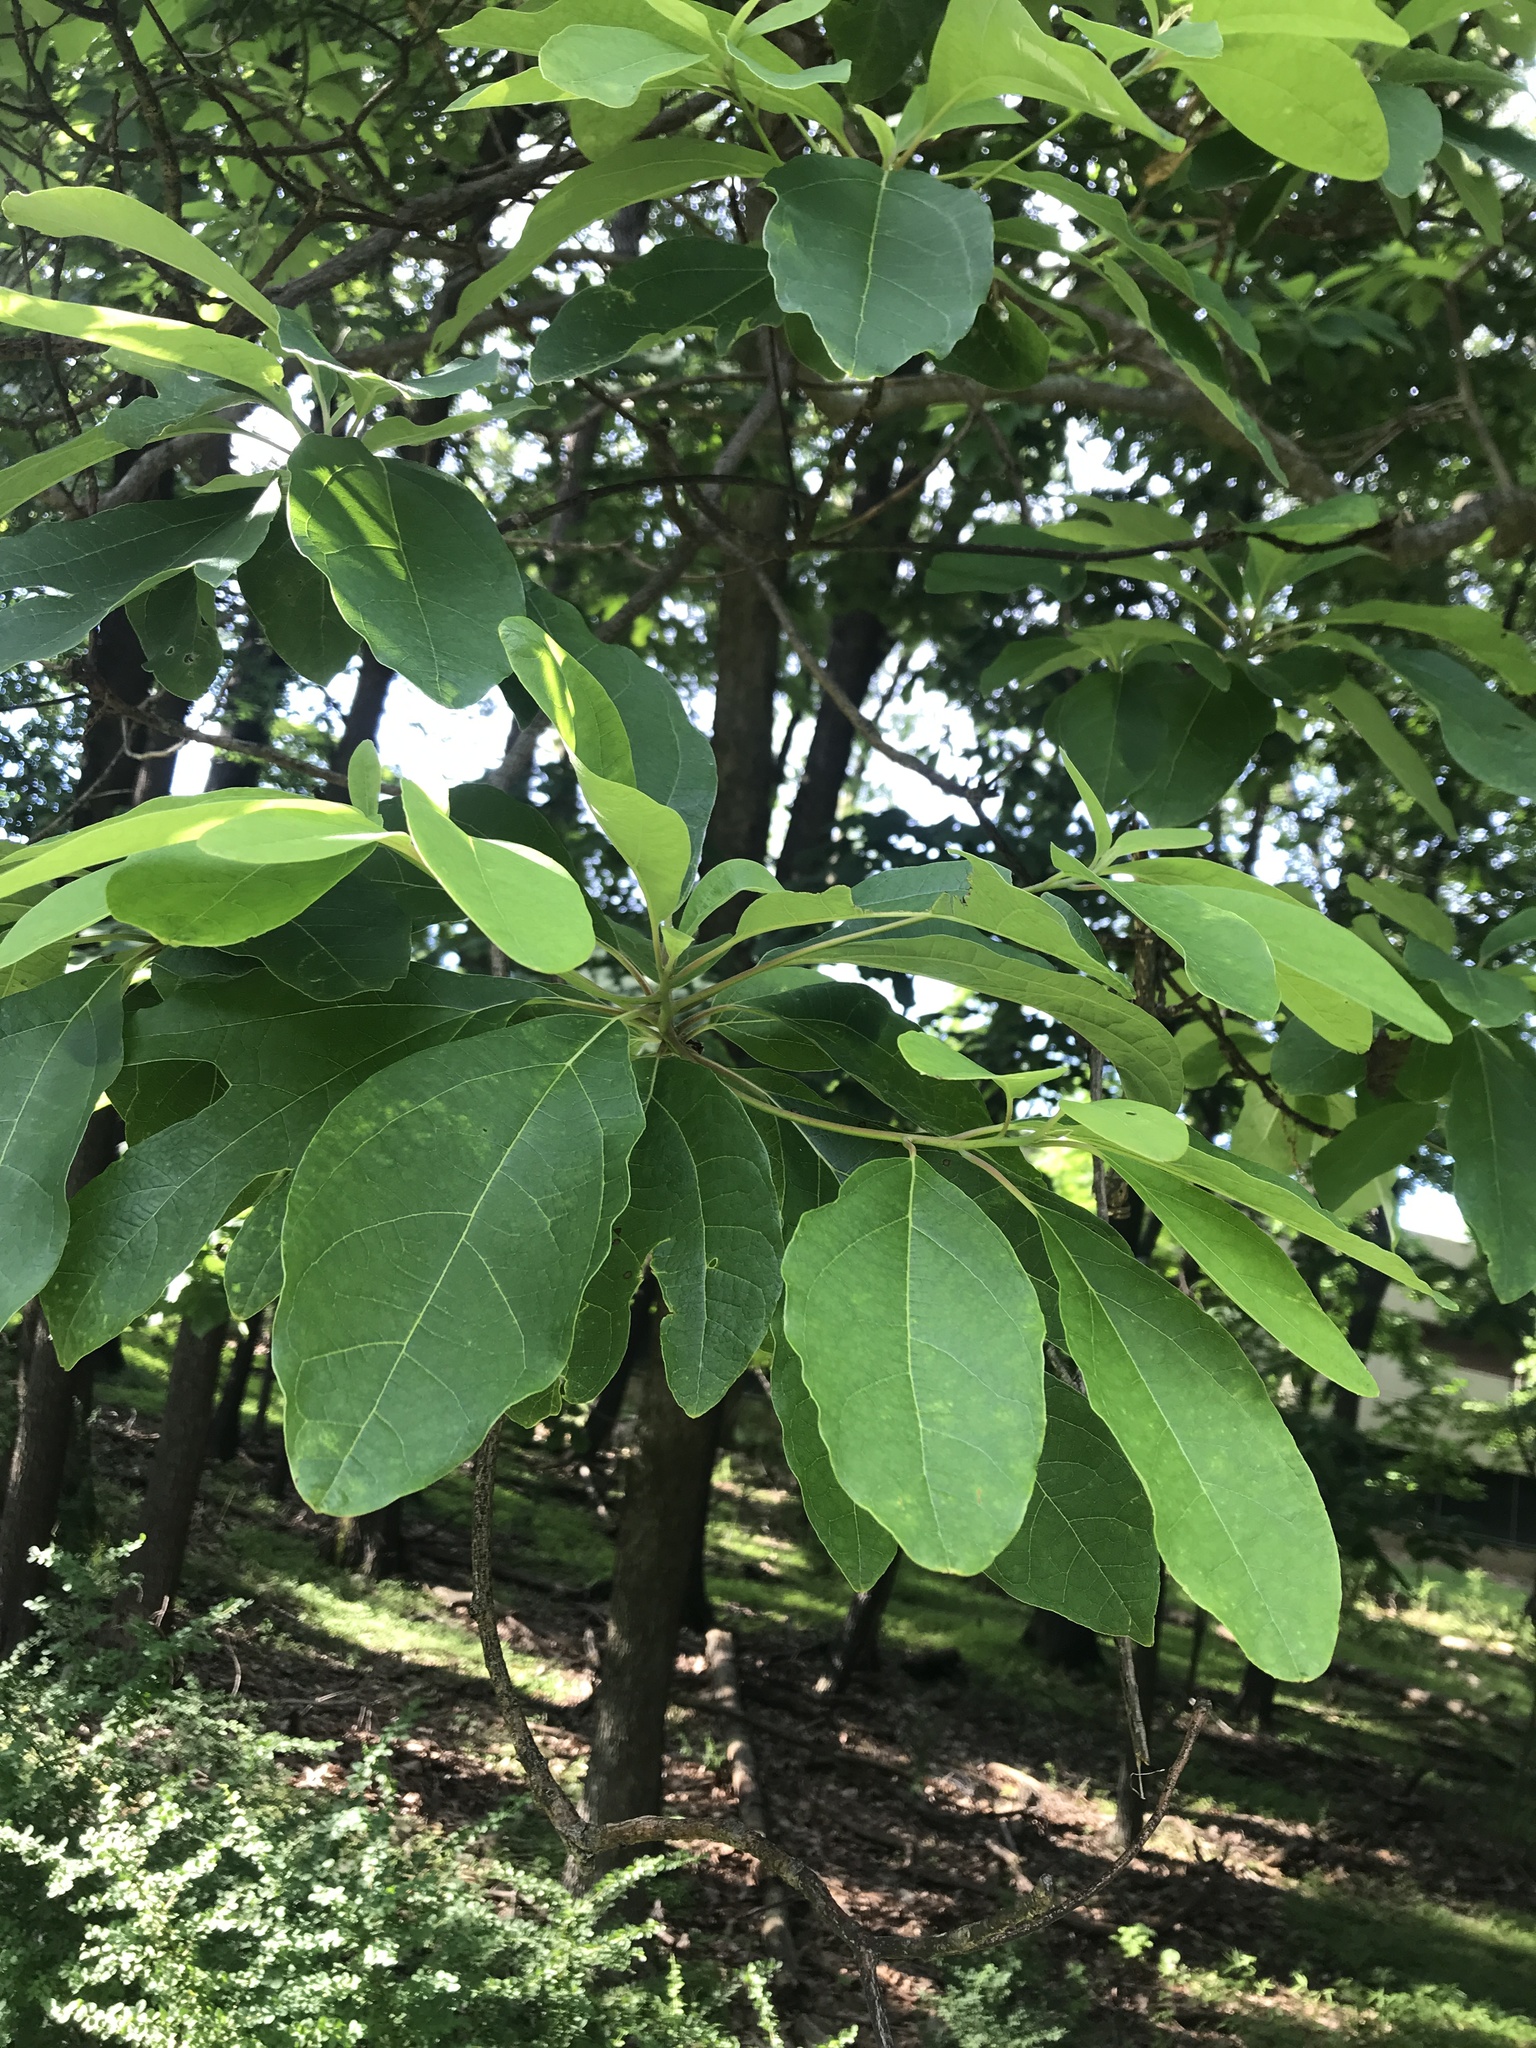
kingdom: Plantae
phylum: Tracheophyta
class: Magnoliopsida
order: Laurales
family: Lauraceae
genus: Sassafras
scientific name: Sassafras albidum
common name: Sassafras
